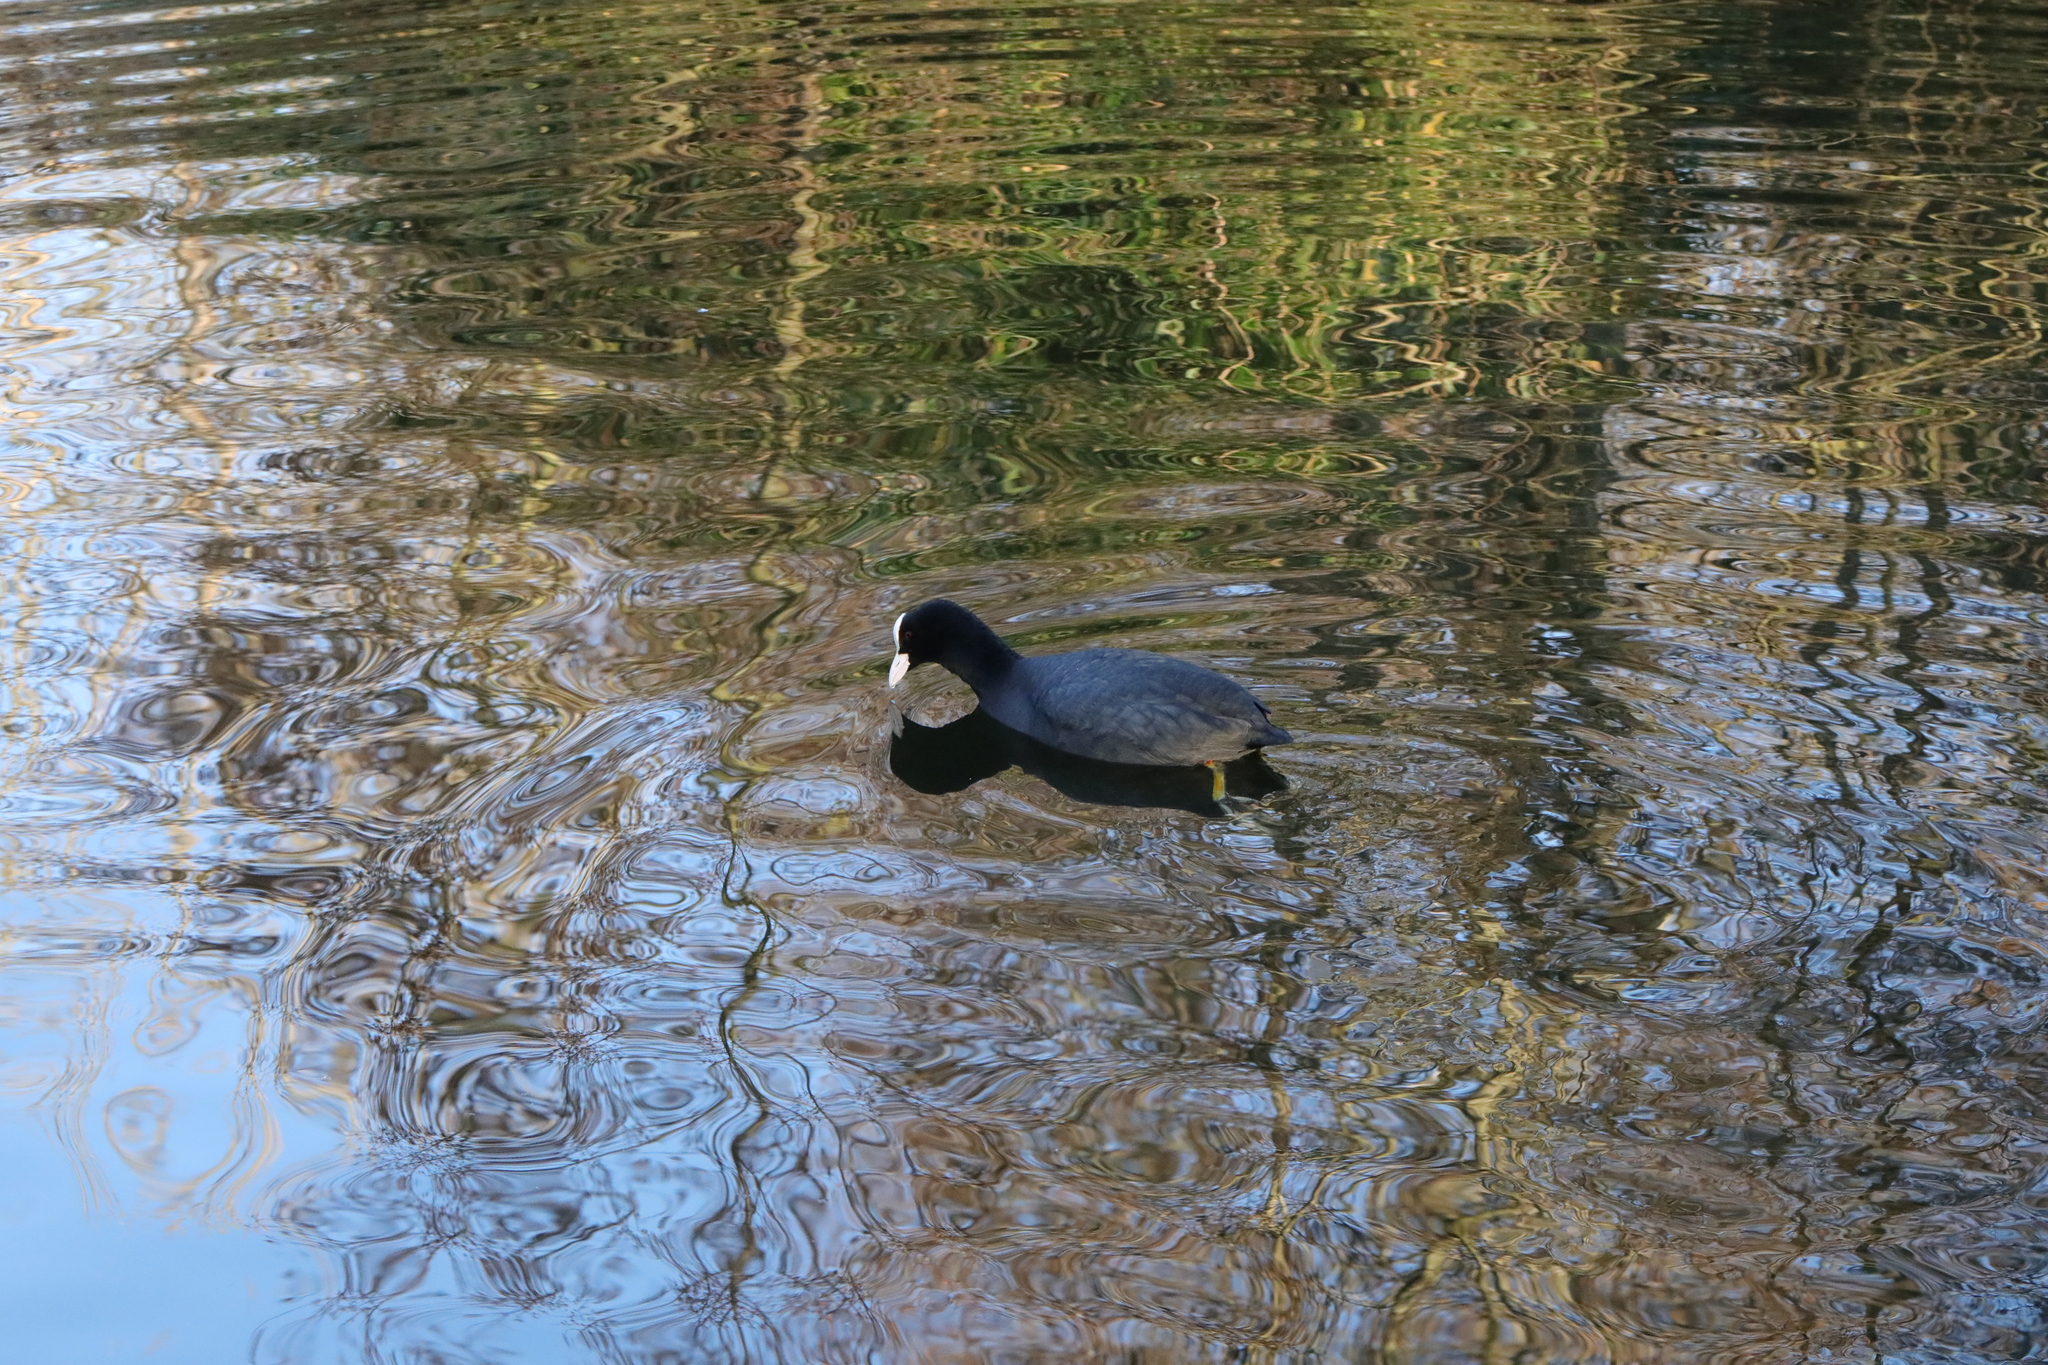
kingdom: Animalia
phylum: Chordata
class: Aves
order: Gruiformes
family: Rallidae
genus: Fulica
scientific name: Fulica atra
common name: Eurasian coot
